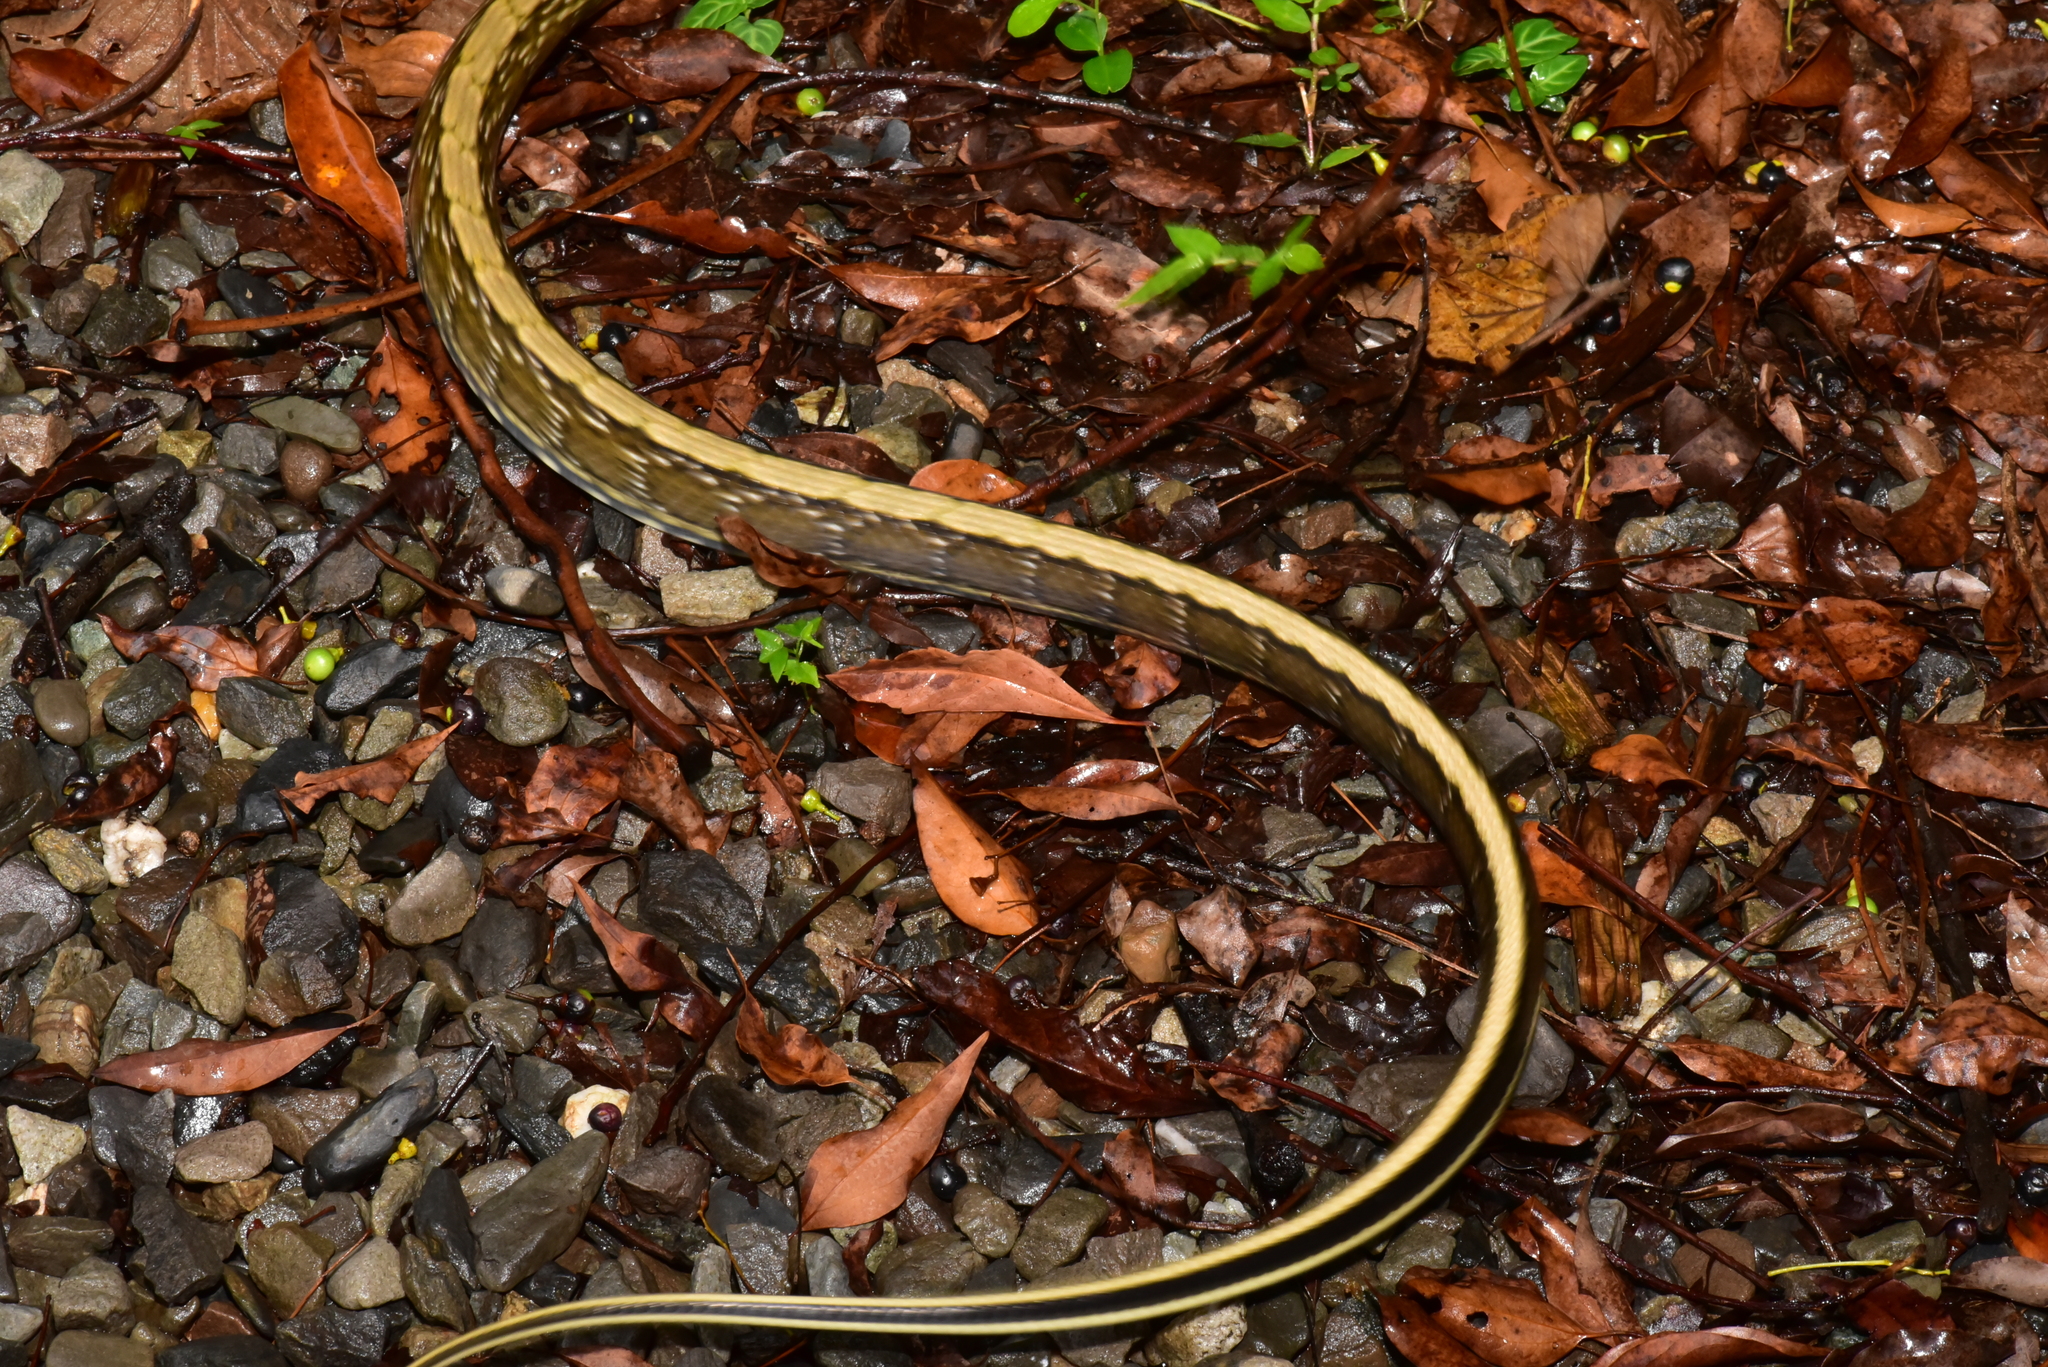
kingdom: Animalia
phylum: Chordata
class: Squamata
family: Colubridae
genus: Elaphe
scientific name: Elaphe taeniura
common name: Beauty snake
